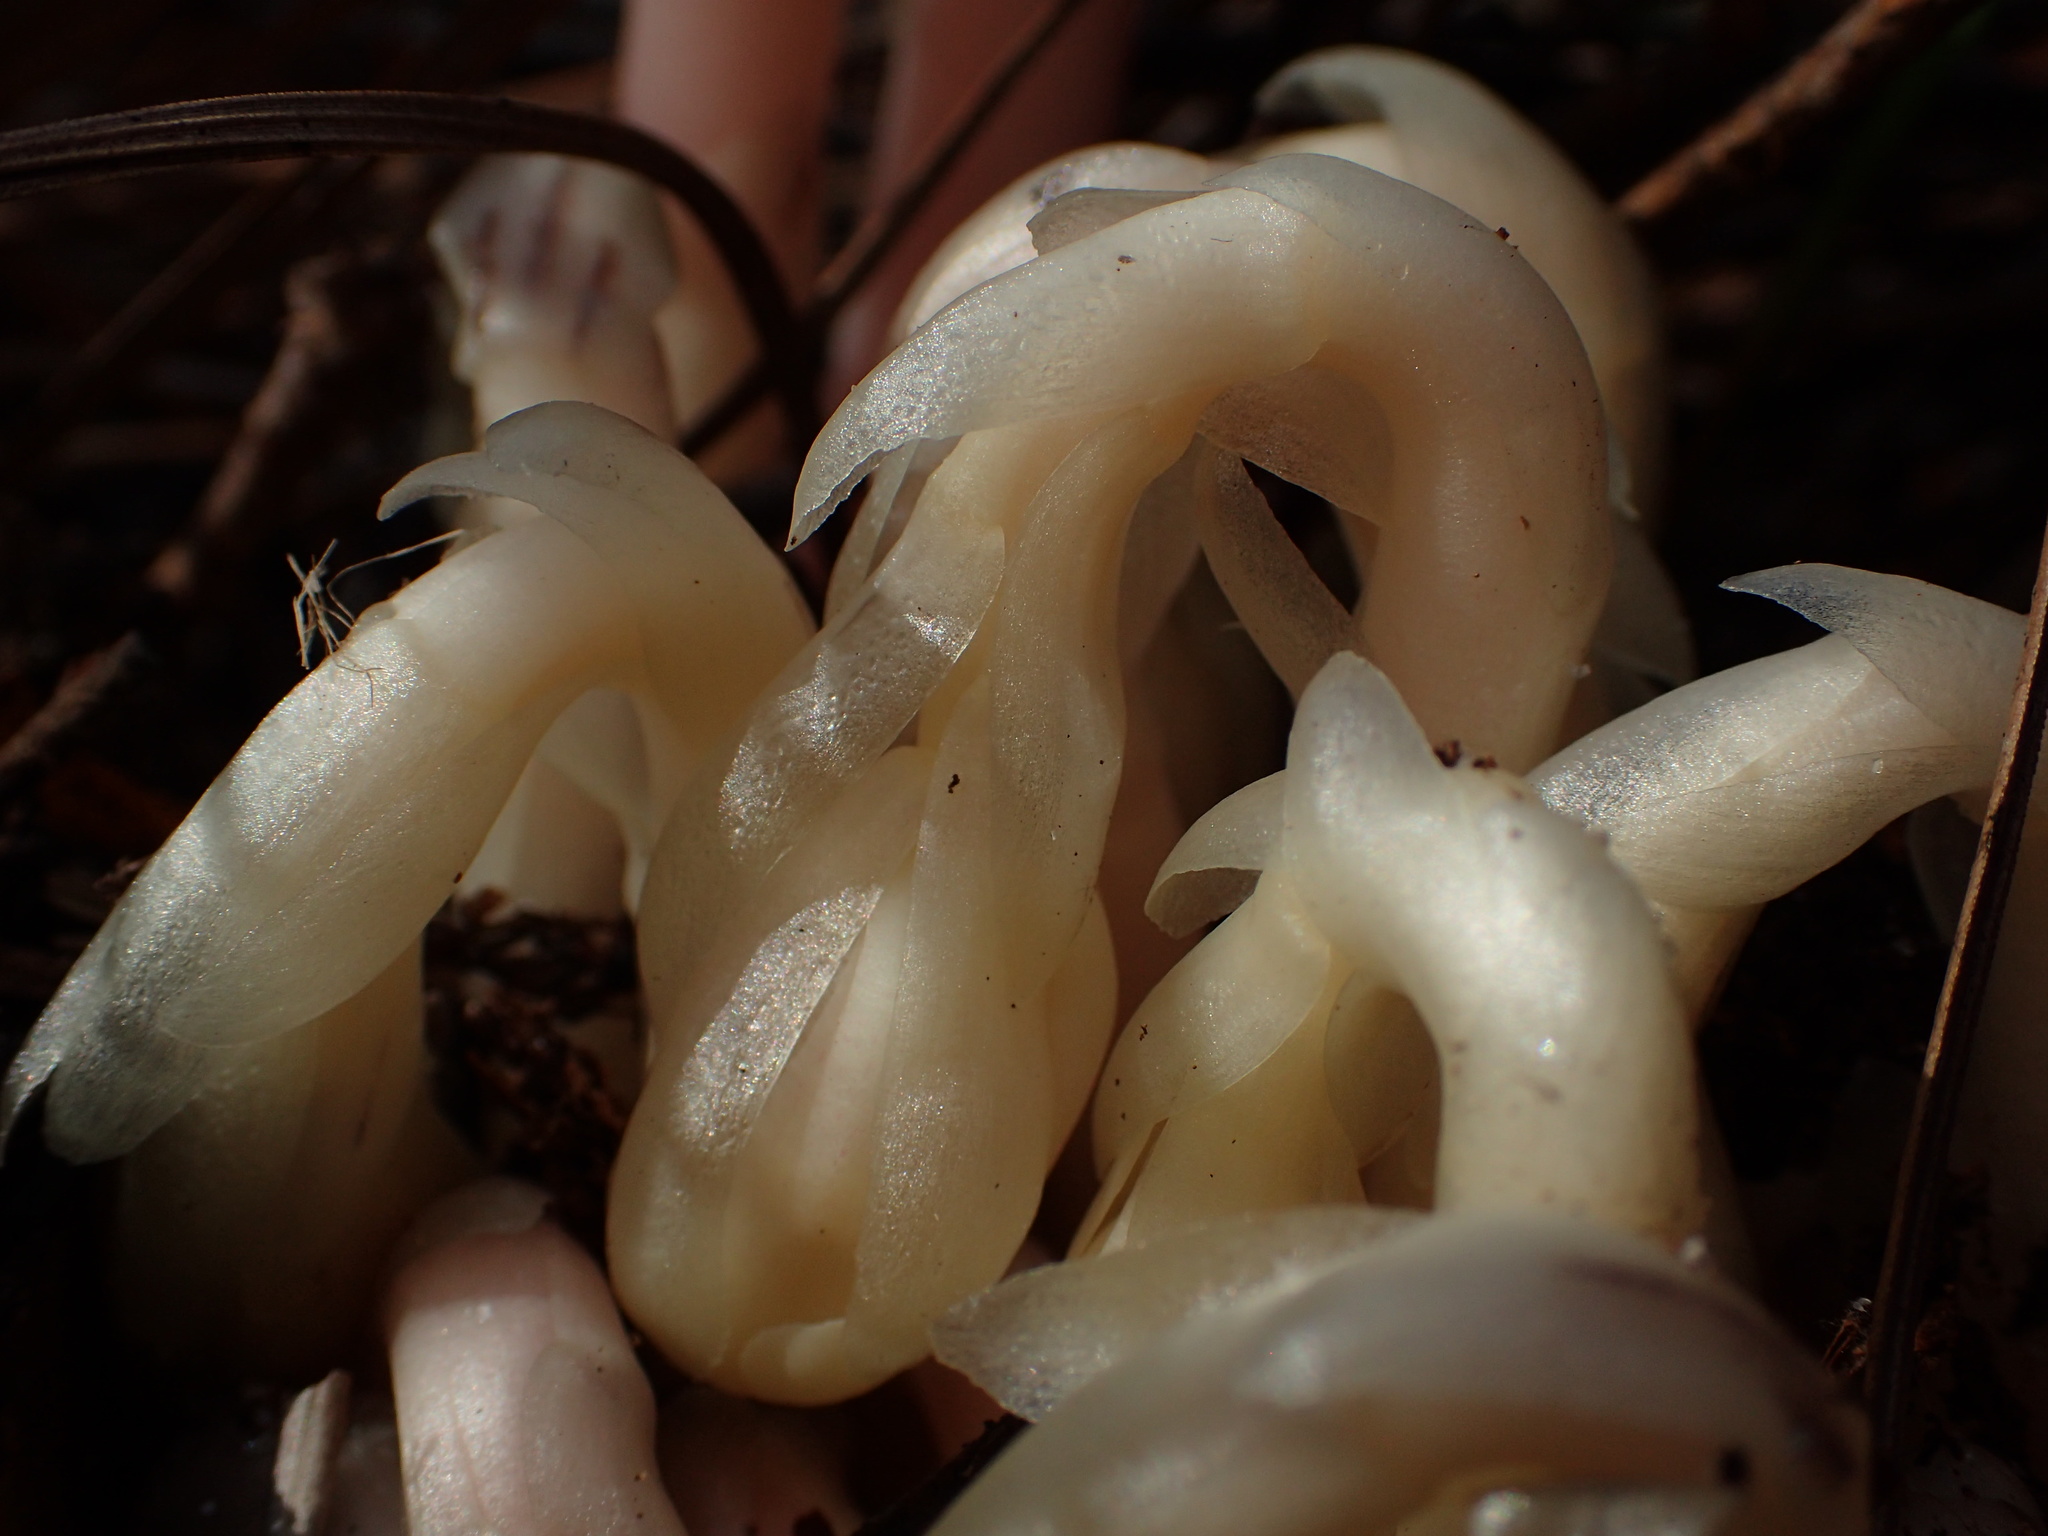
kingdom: Plantae
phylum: Tracheophyta
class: Magnoliopsida
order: Ericales
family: Ericaceae
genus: Monotropa
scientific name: Monotropa uniflora
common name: Convulsion root
